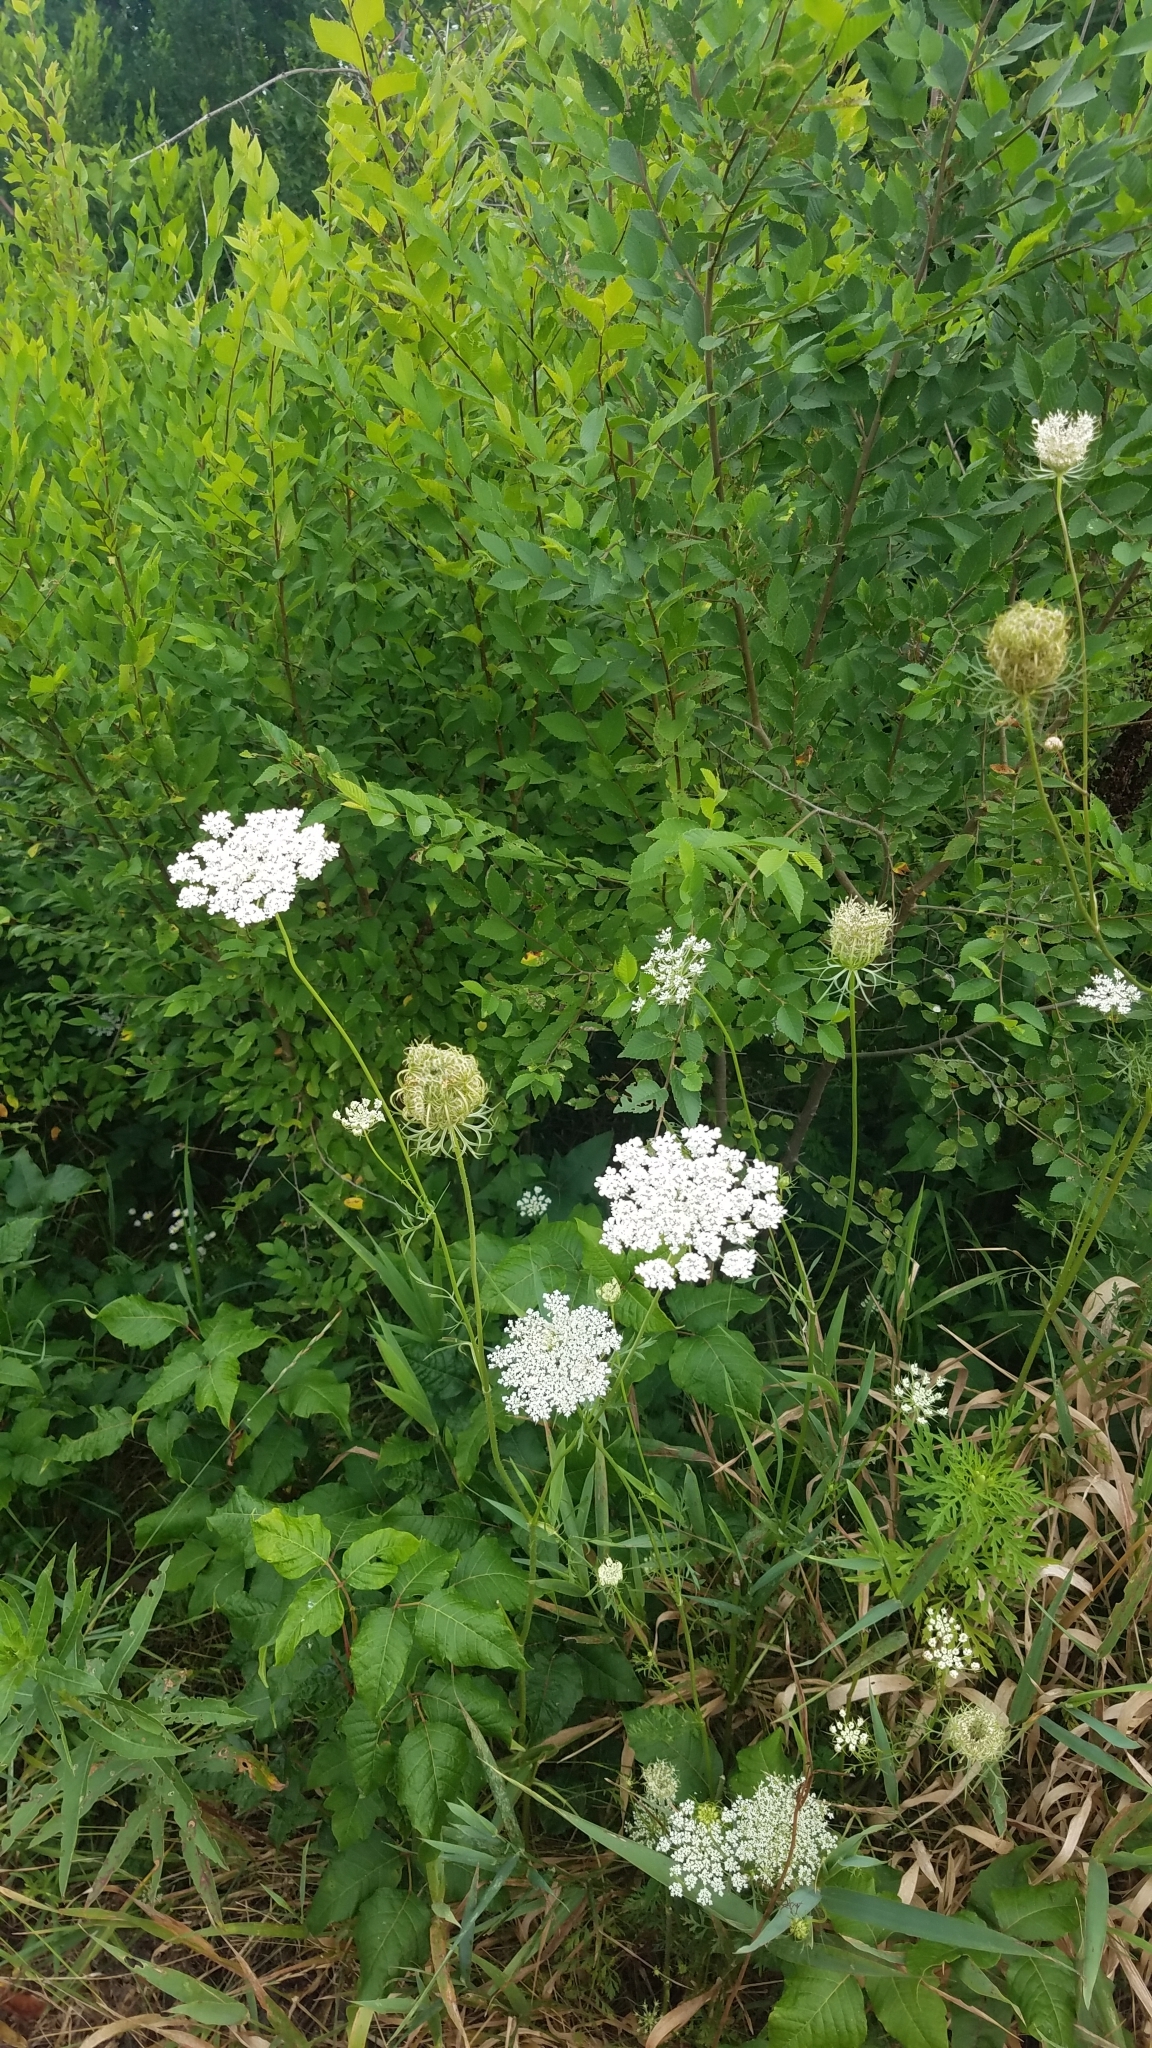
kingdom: Plantae
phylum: Tracheophyta
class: Magnoliopsida
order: Apiales
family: Apiaceae
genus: Daucus
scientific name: Daucus carota
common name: Wild carrot
